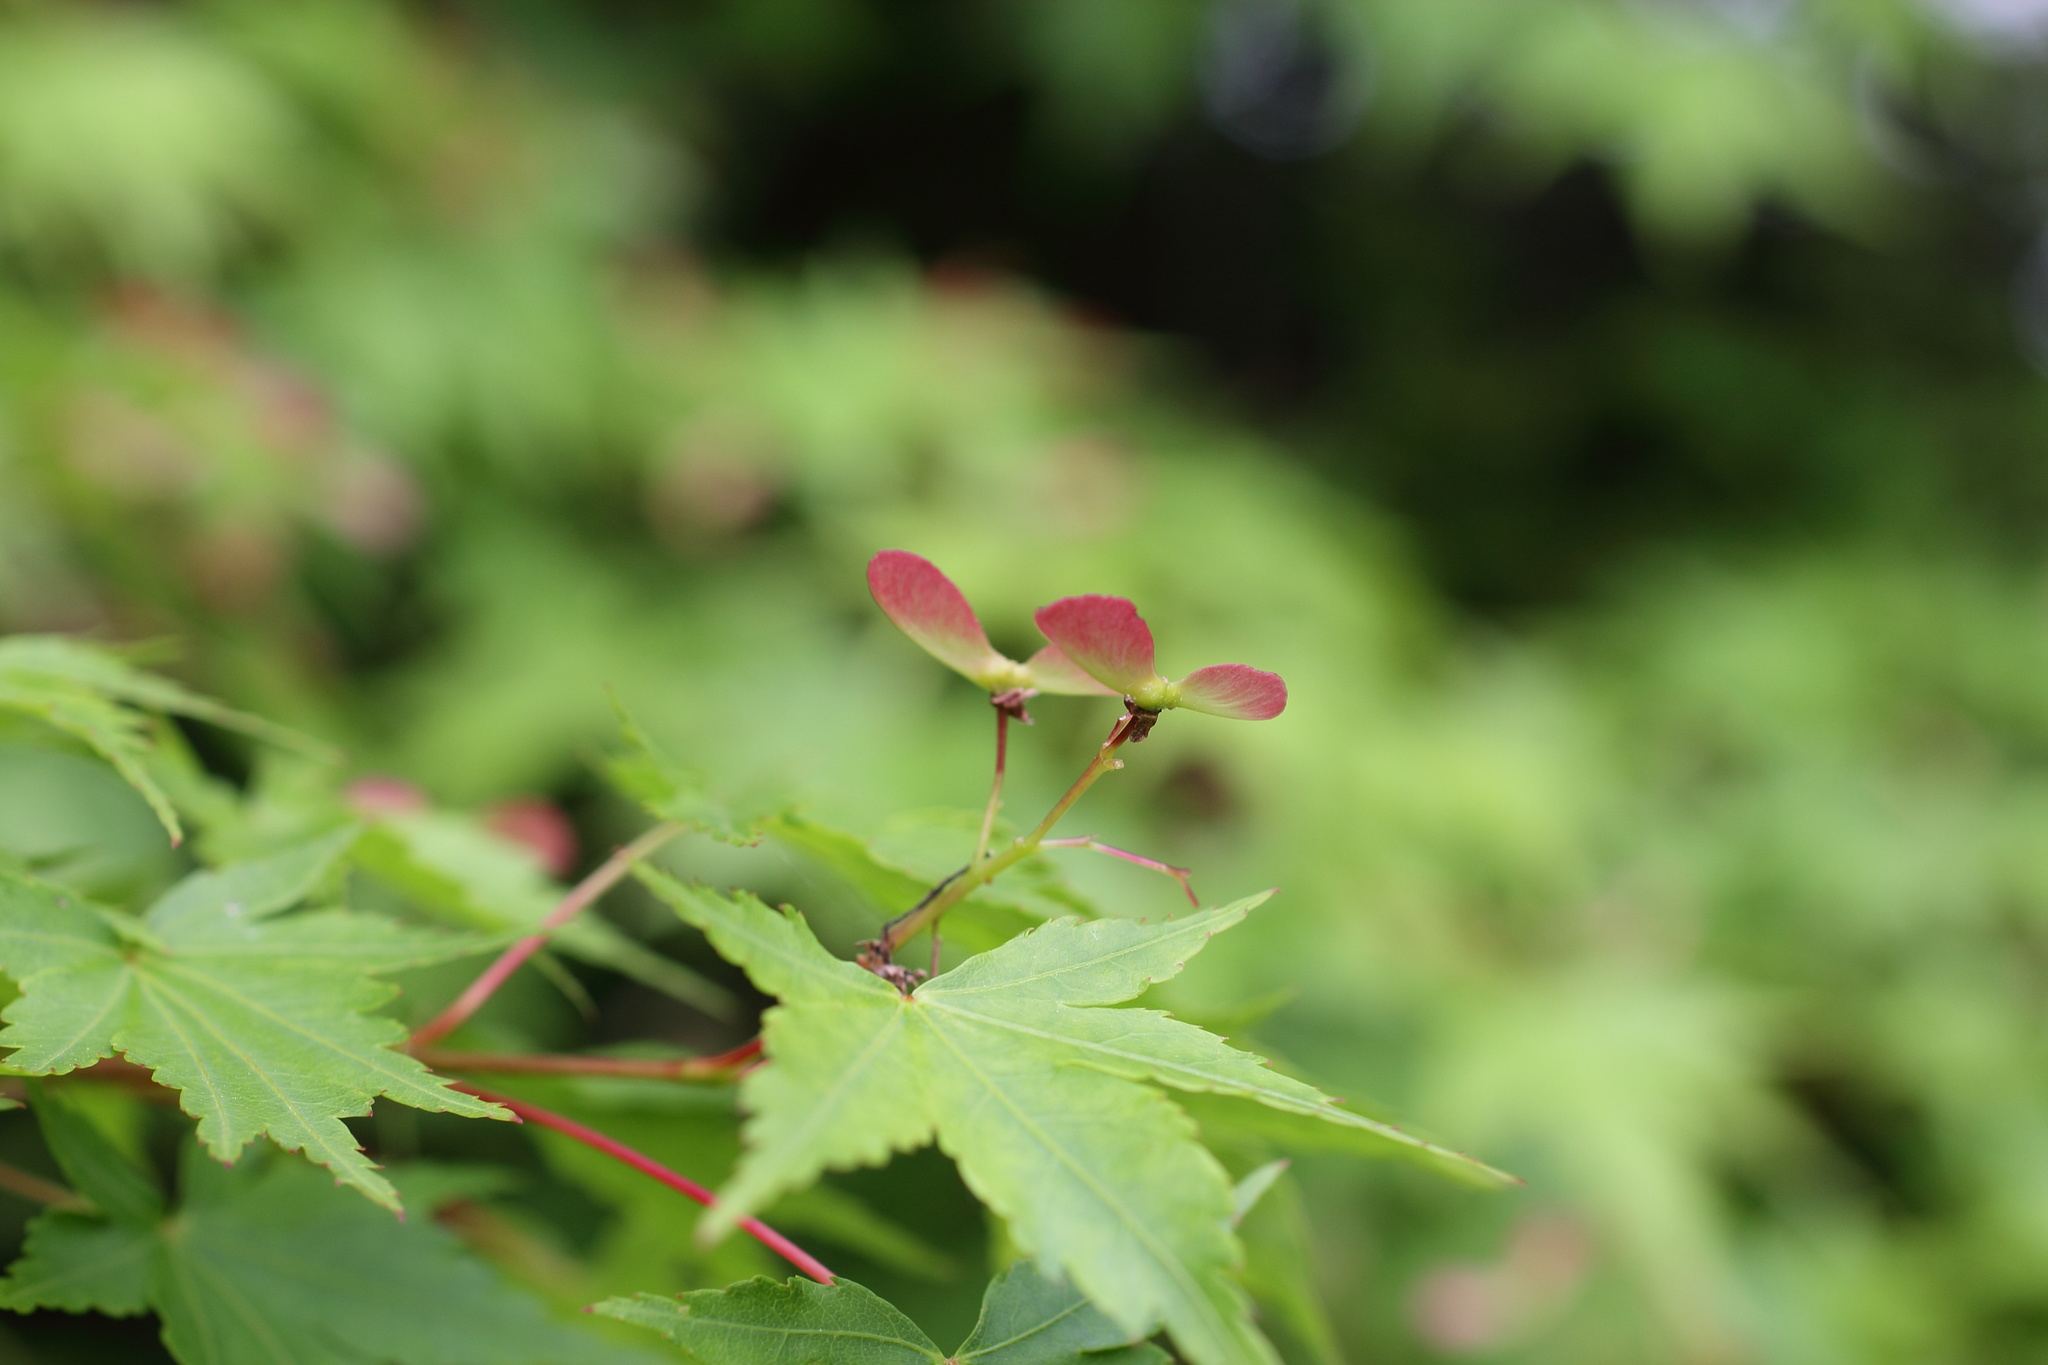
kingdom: Plantae
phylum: Tracheophyta
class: Magnoliopsida
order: Sapindales
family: Sapindaceae
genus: Acer
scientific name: Acer palmatum
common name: Japanese maple
